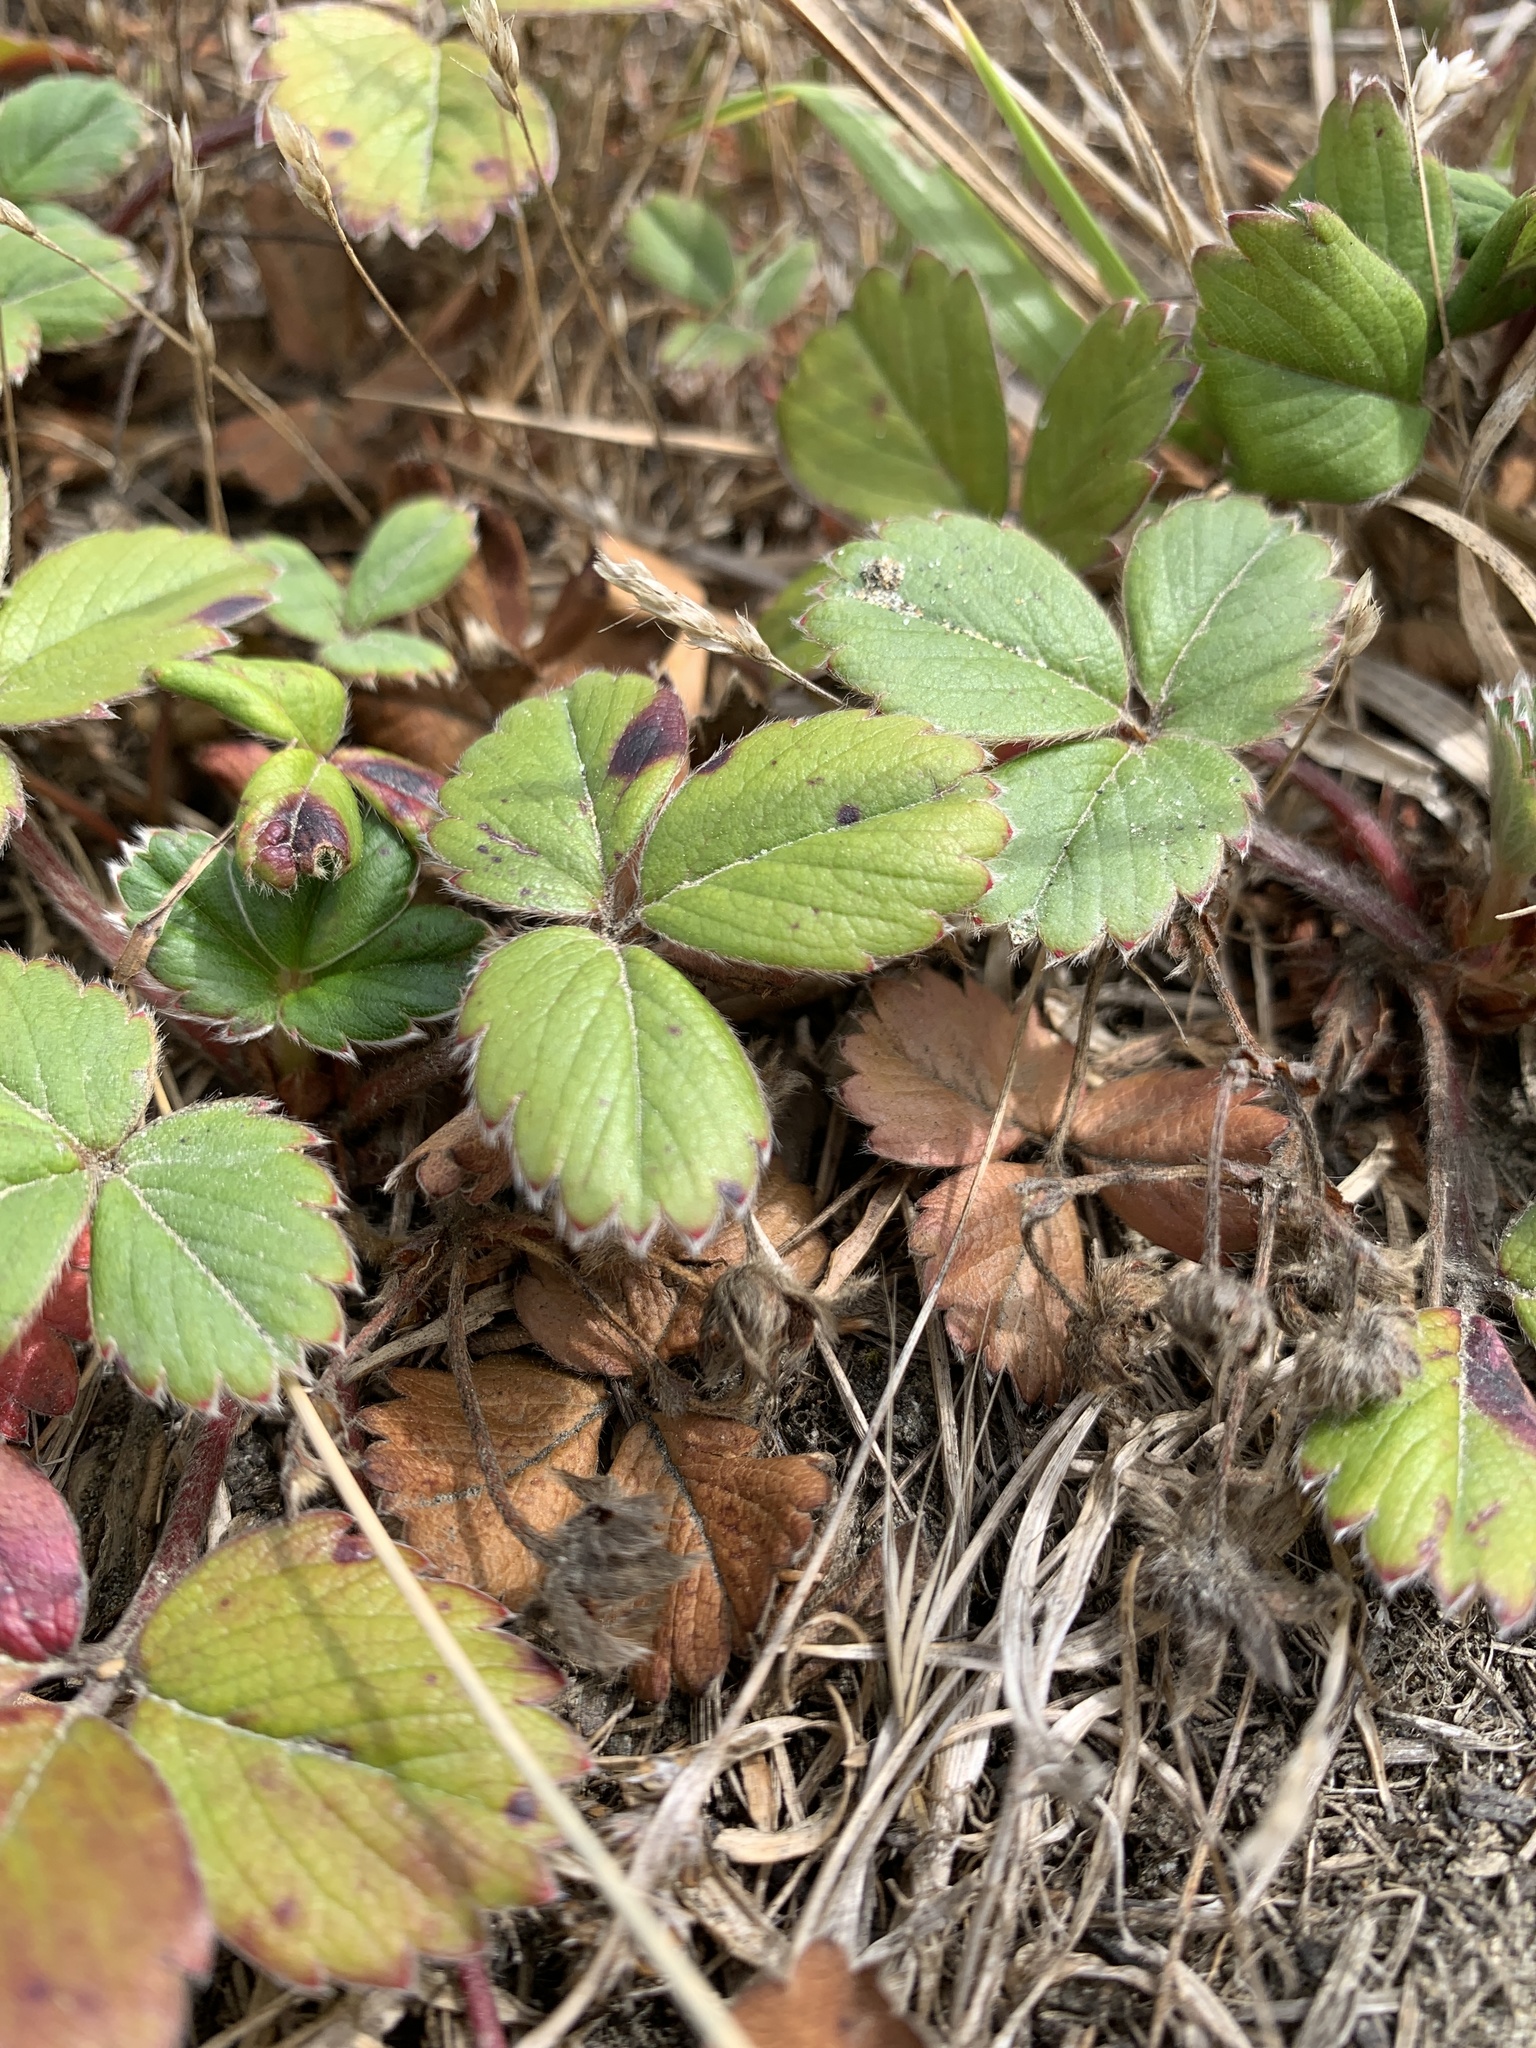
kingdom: Plantae
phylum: Tracheophyta
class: Magnoliopsida
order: Rosales
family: Rosaceae
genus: Fragaria
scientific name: Fragaria chiloensis
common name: Beach strawberry
